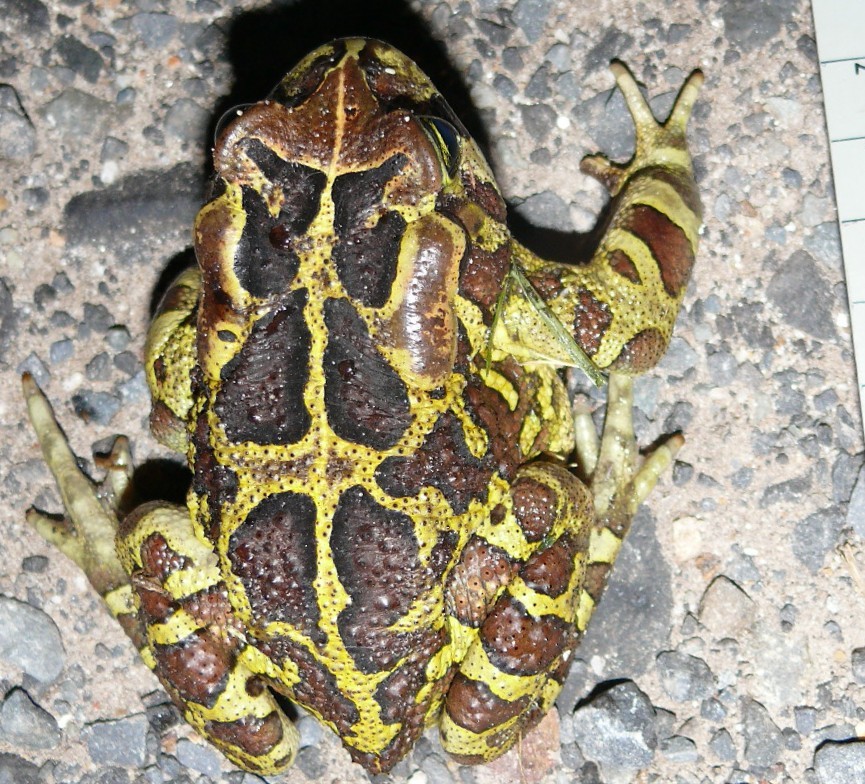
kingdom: Animalia
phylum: Chordata
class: Amphibia
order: Anura
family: Bufonidae
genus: Sclerophrys
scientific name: Sclerophrys pantherina
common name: Panther toad
